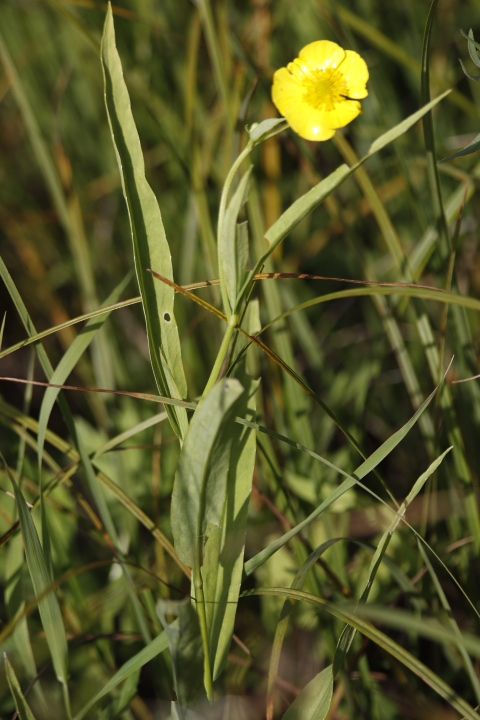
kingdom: Plantae
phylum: Tracheophyta
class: Magnoliopsida
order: Ranunculales
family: Ranunculaceae
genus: Ranunculus
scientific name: Ranunculus lingua
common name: Greater spearwort
